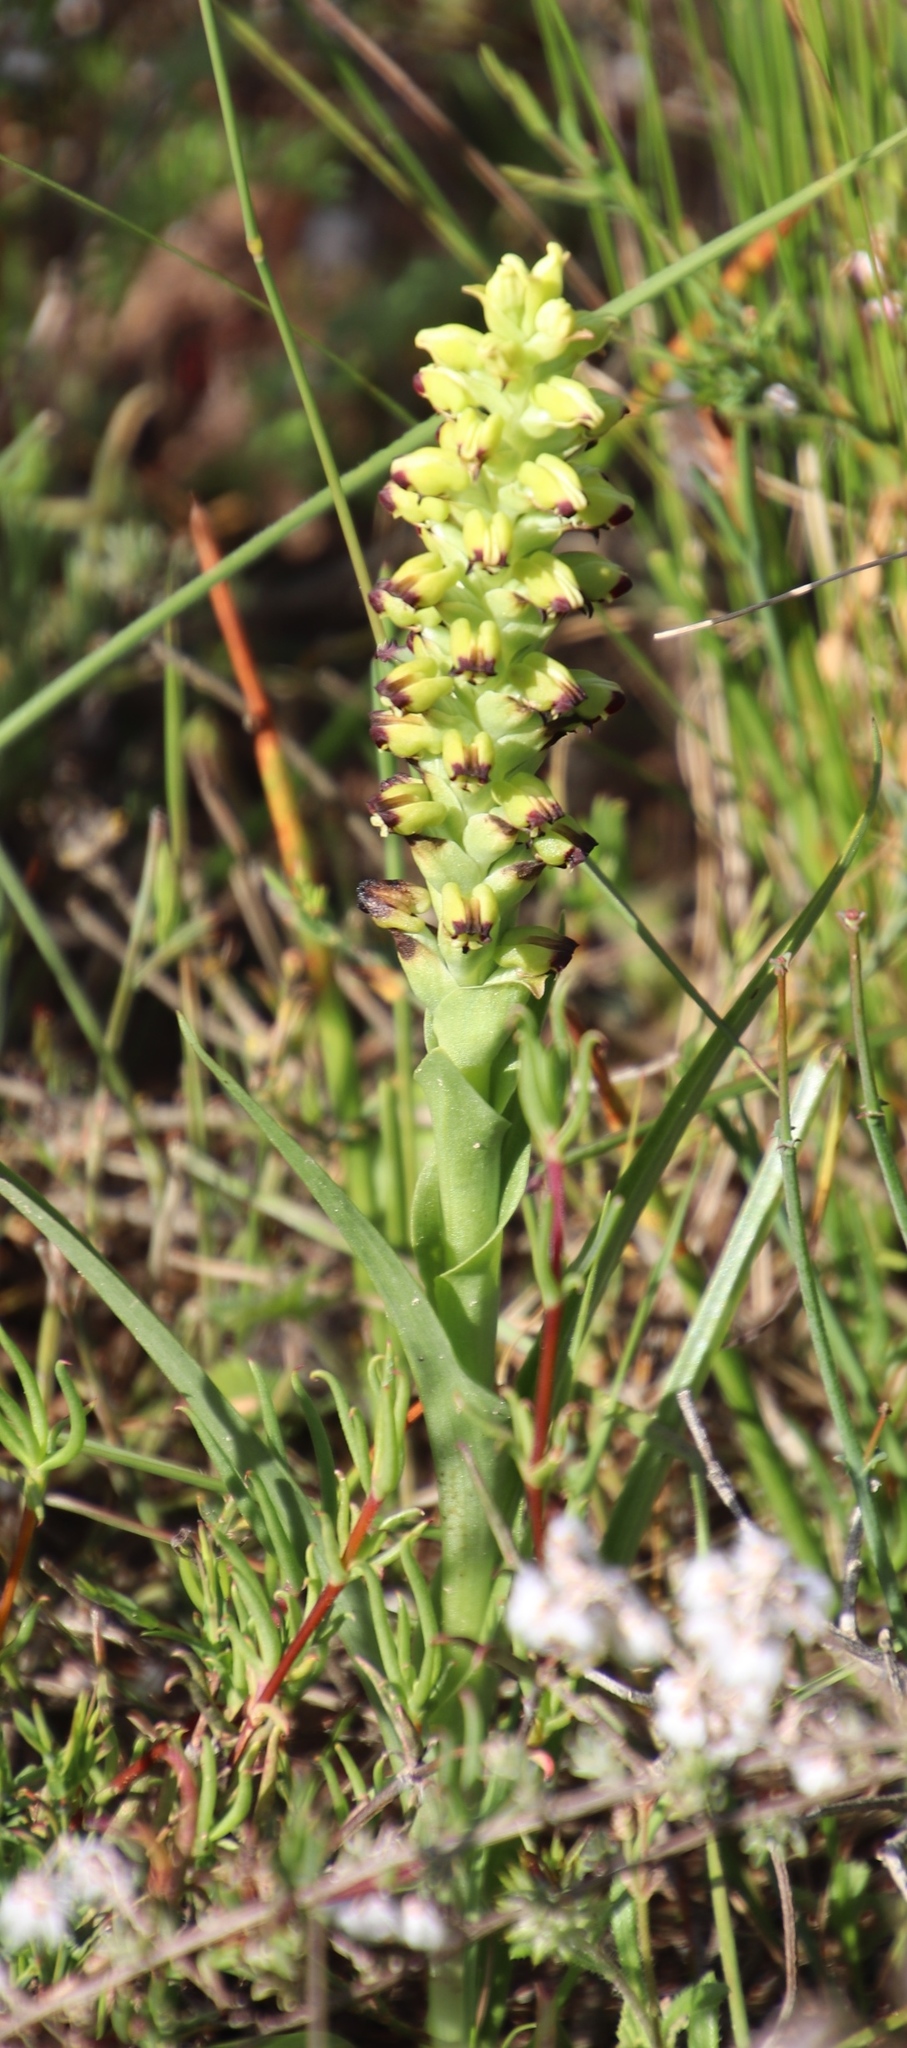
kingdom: Plantae
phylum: Tracheophyta
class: Liliopsida
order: Asparagales
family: Orchidaceae
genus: Corycium
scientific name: Corycium orobanchoides
